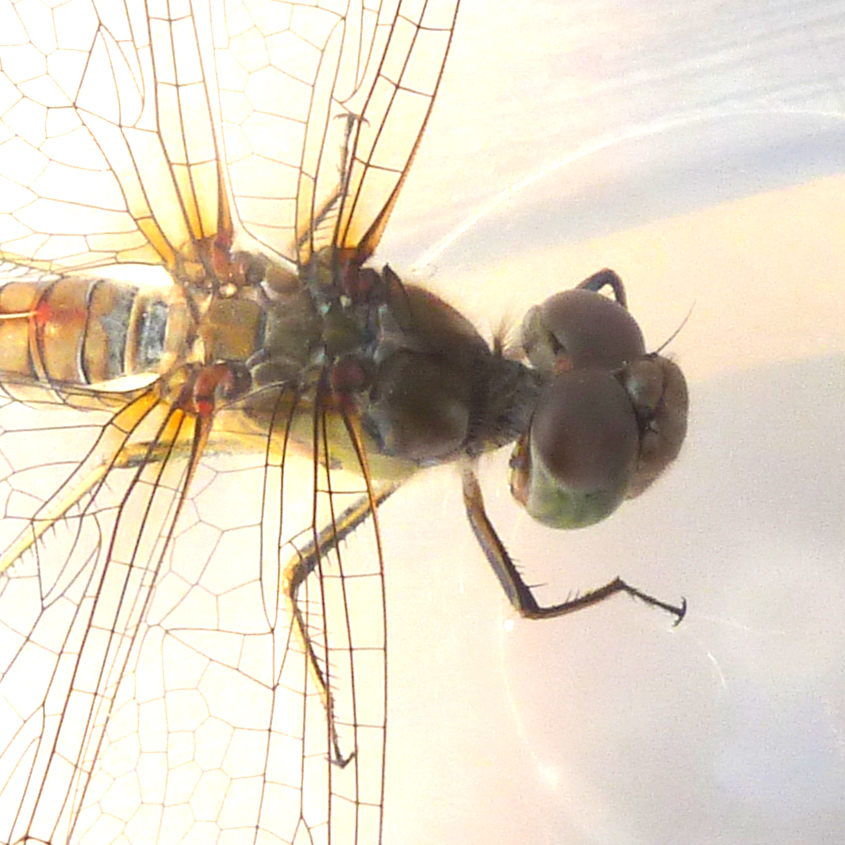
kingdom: Animalia
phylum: Arthropoda
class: Insecta
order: Odonata
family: Libellulidae
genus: Sympetrum
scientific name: Sympetrum striolatum
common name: Common darter
